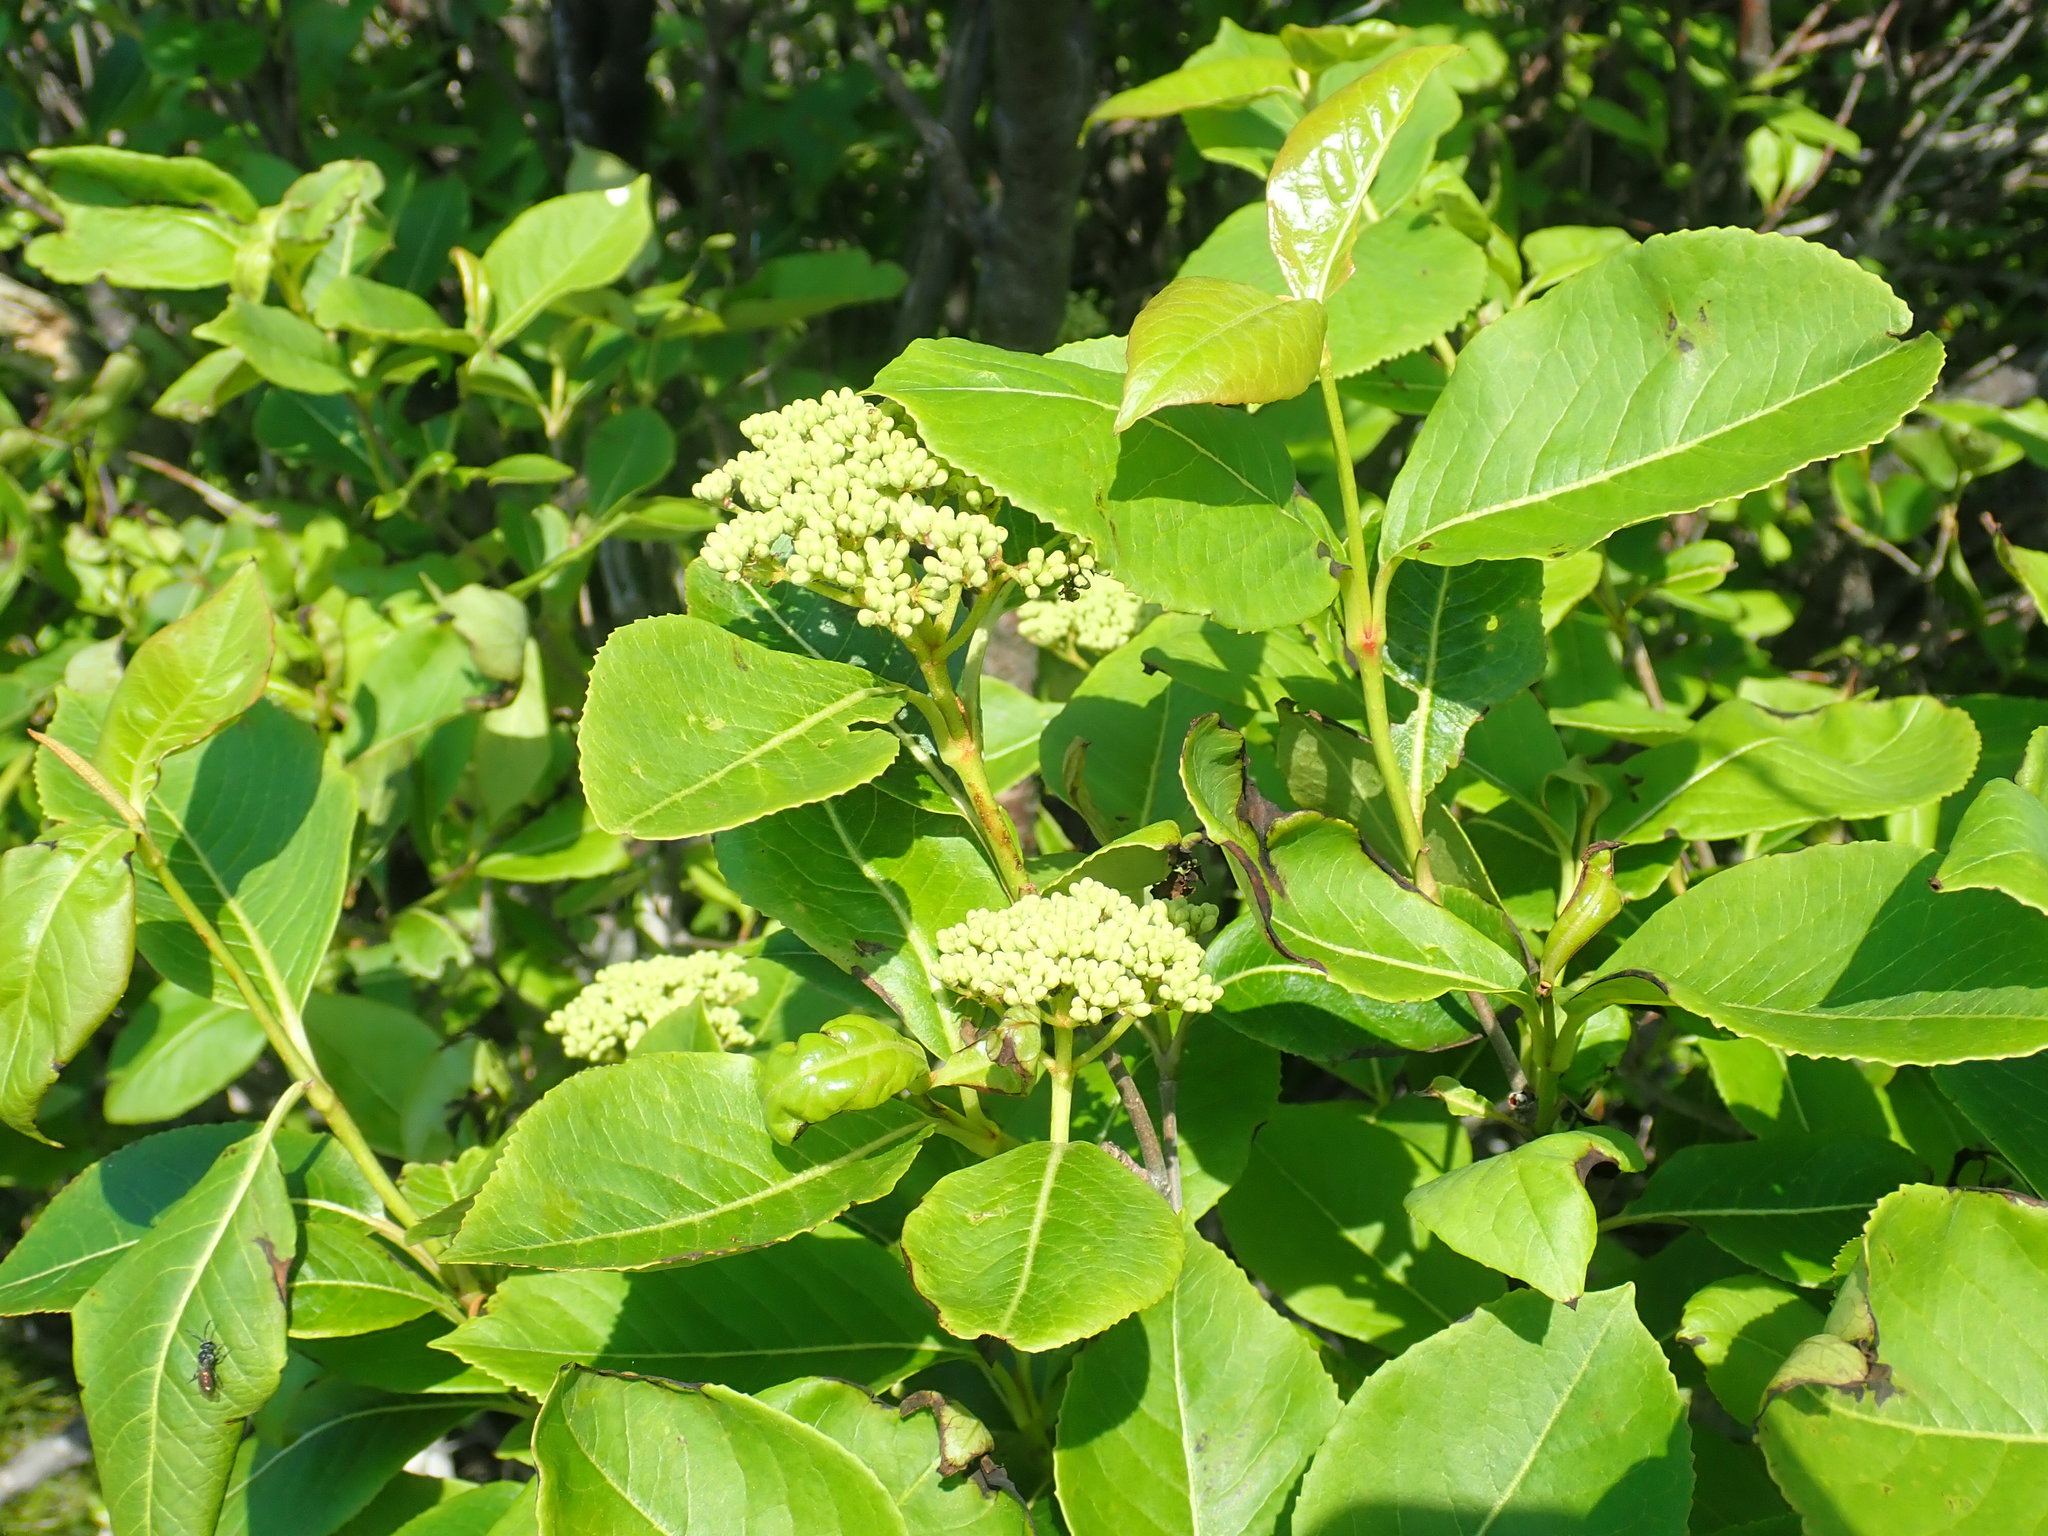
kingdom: Plantae
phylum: Tracheophyta
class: Magnoliopsida
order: Dipsacales
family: Viburnaceae
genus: Viburnum
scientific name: Viburnum cassinoides
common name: Swamp haw
